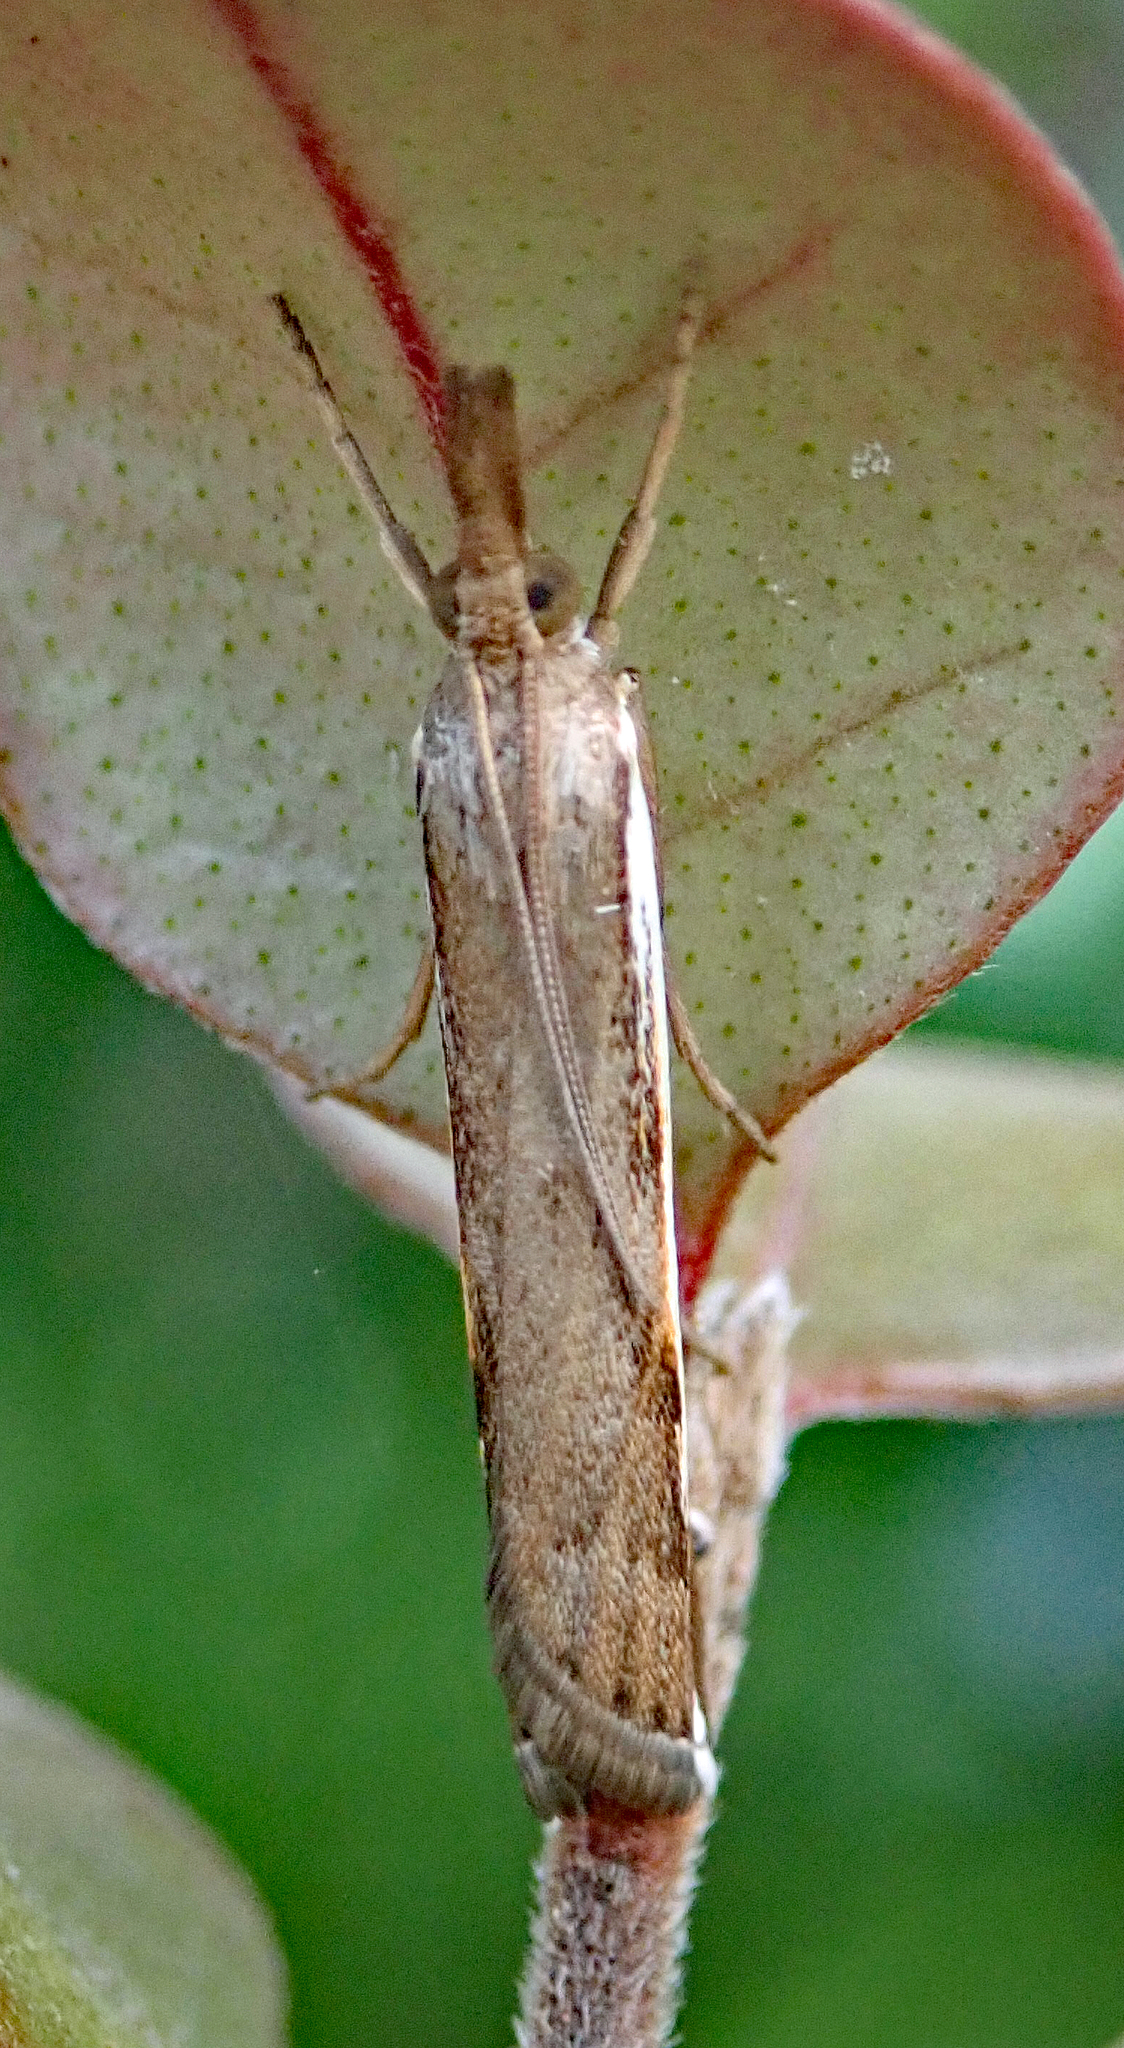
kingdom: Animalia
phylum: Arthropoda
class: Insecta
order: Lepidoptera
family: Crambidae
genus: Orocrambus
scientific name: Orocrambus flexuosellus
